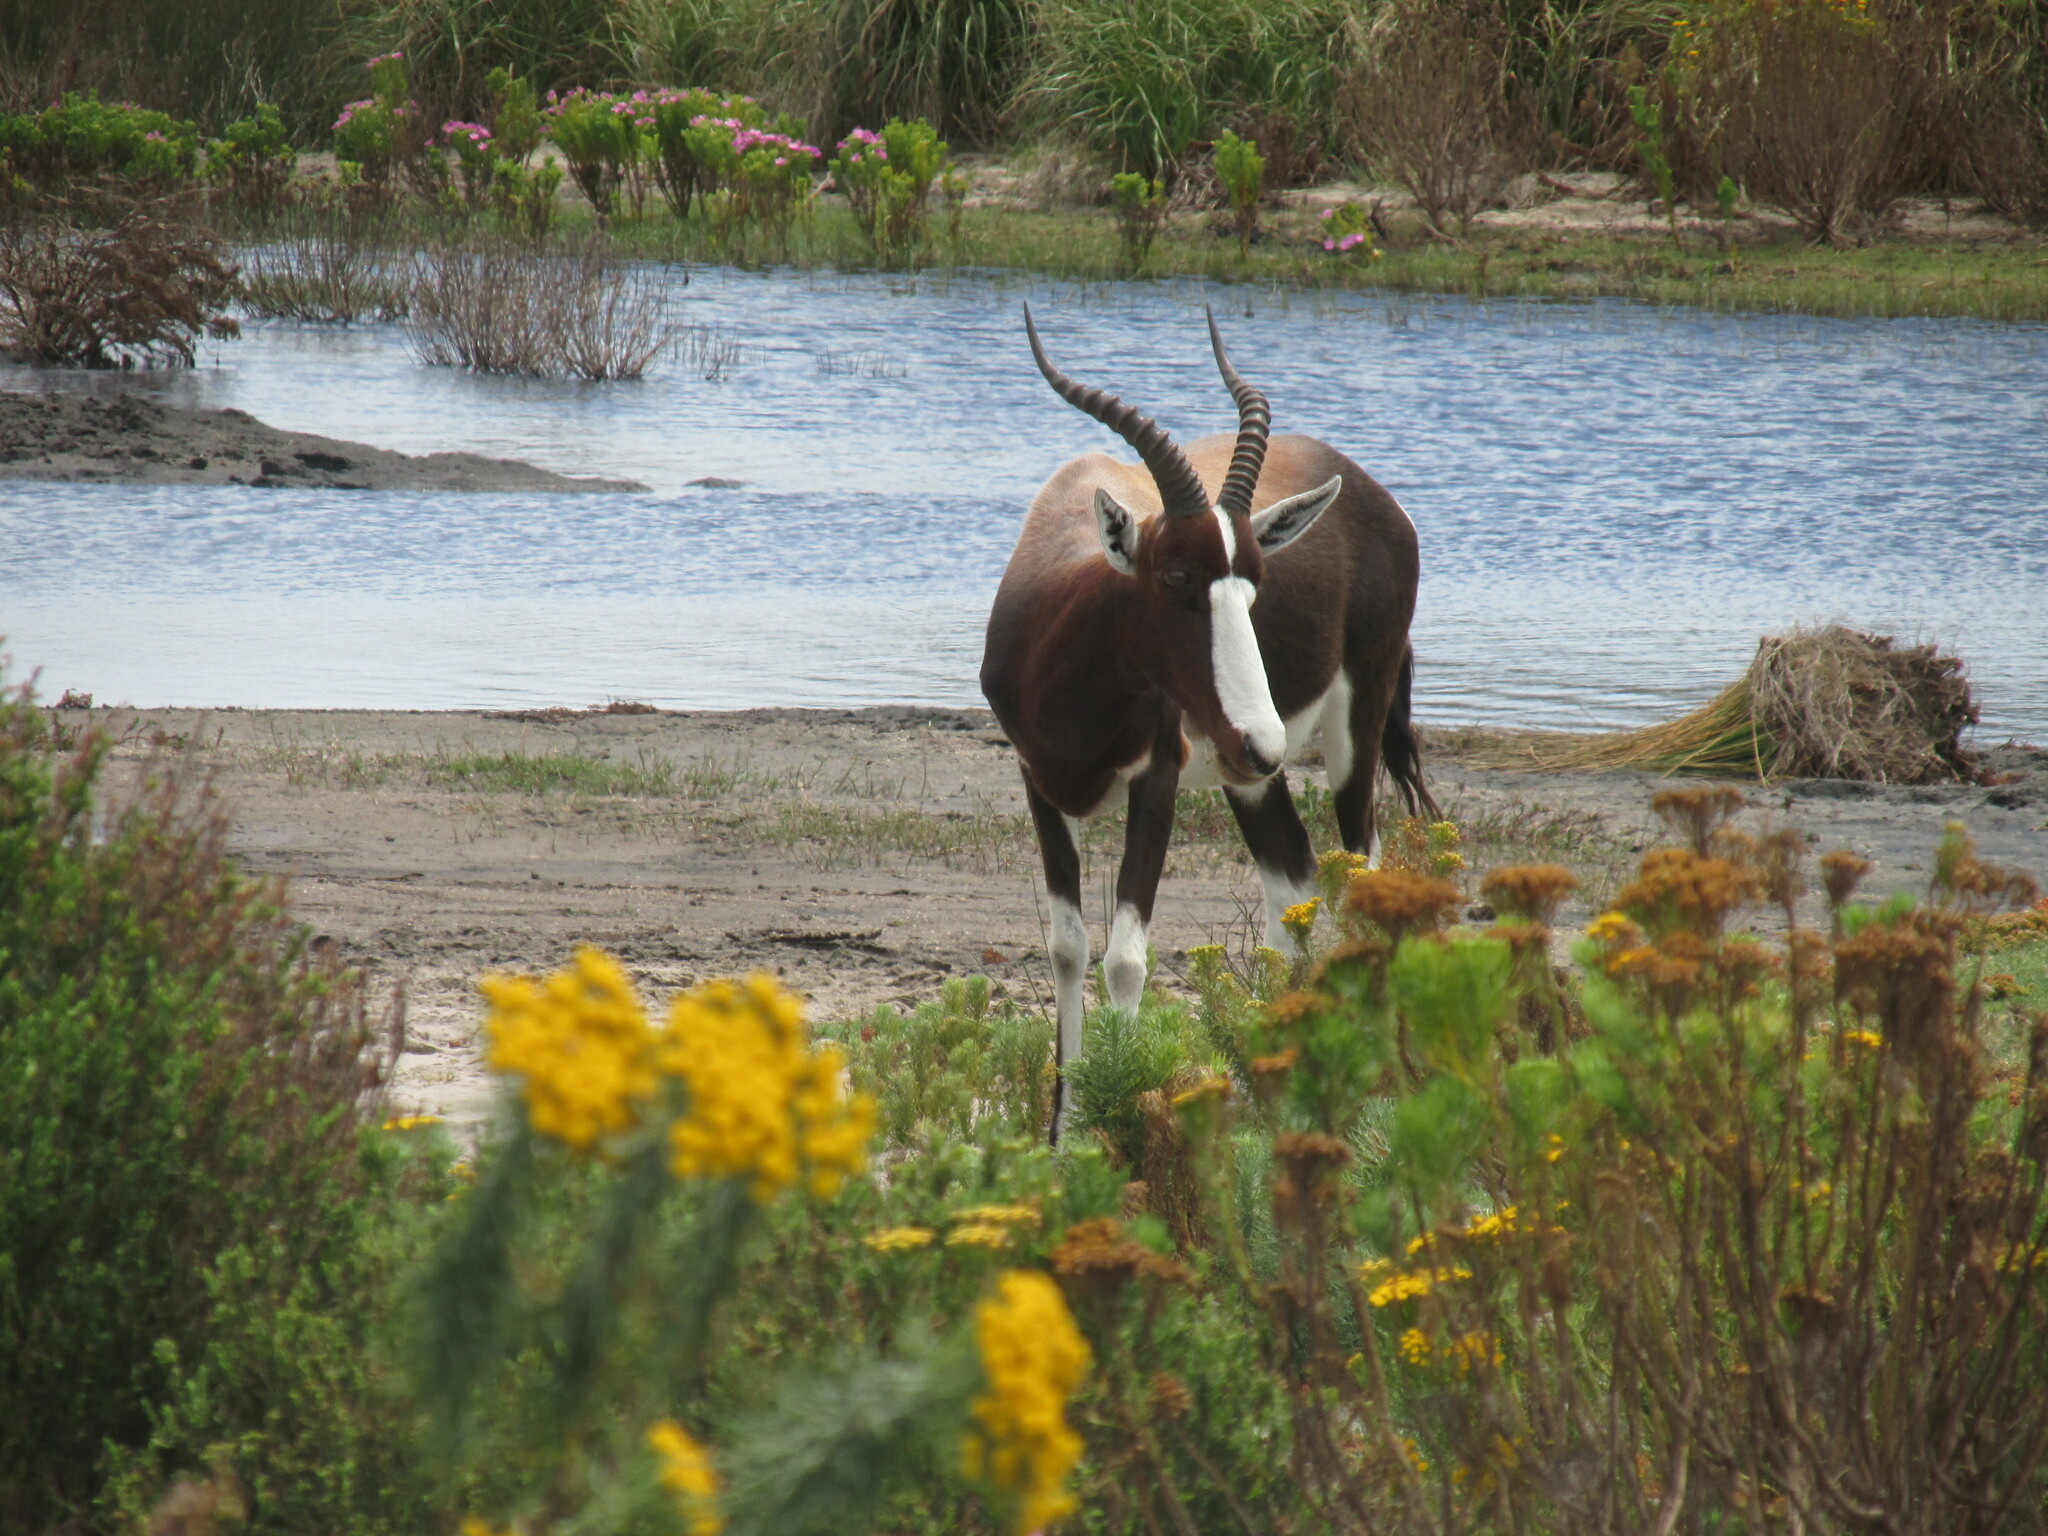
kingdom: Animalia
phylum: Chordata
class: Mammalia
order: Artiodactyla
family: Bovidae
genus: Damaliscus
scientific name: Damaliscus pygargus
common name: Bontebok
